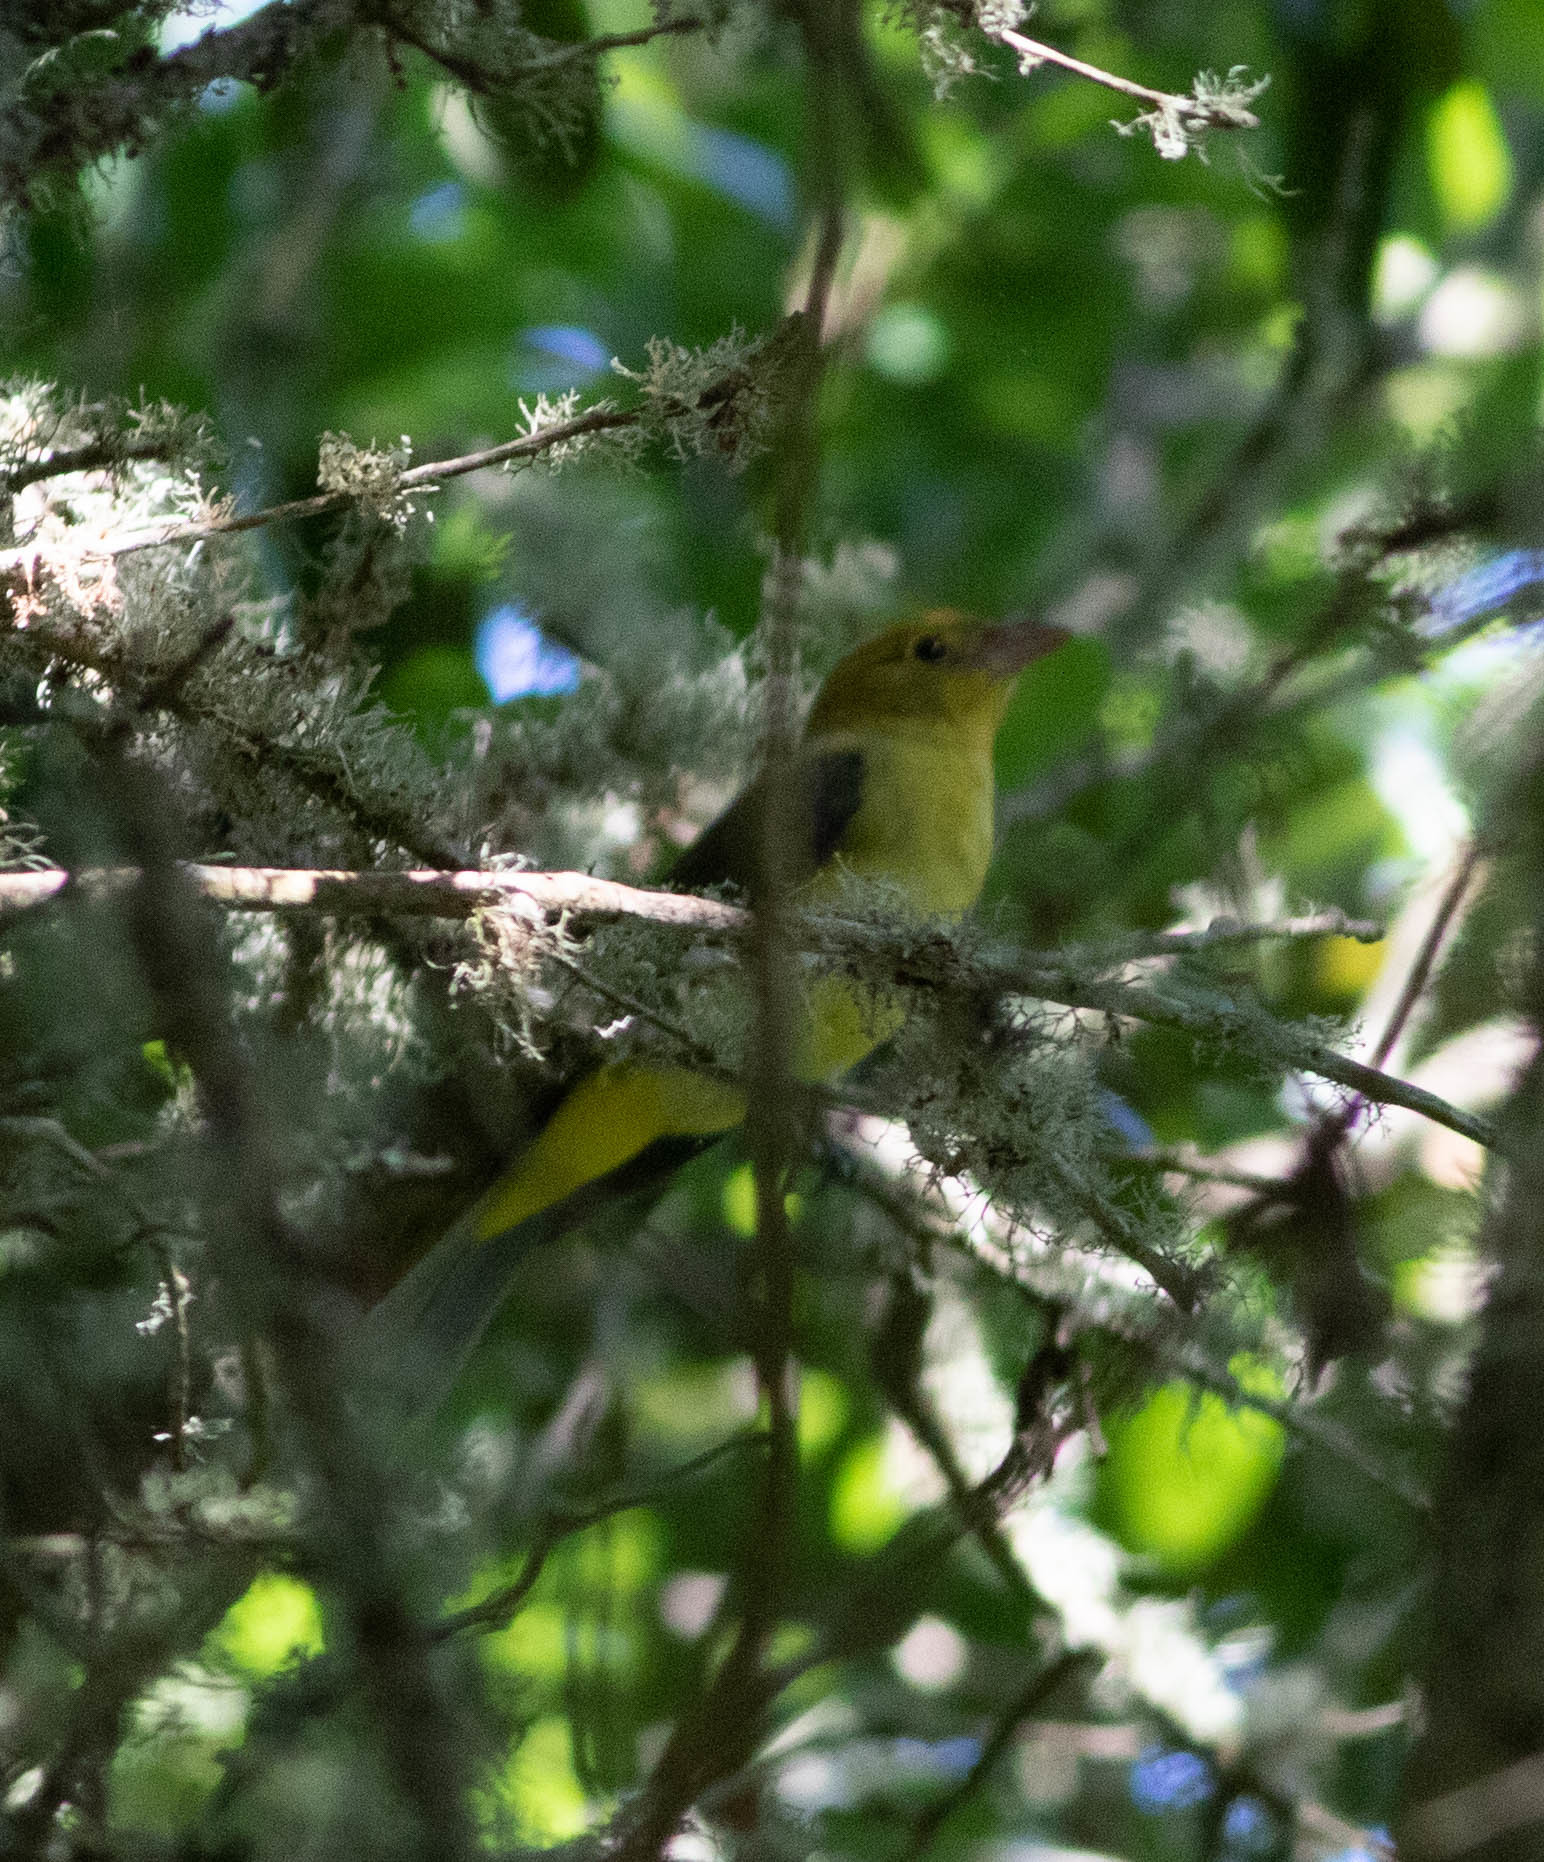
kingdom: Animalia
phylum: Chordata
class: Aves
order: Passeriformes
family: Cardinalidae
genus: Piranga
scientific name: Piranga olivacea
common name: Scarlet tanager
